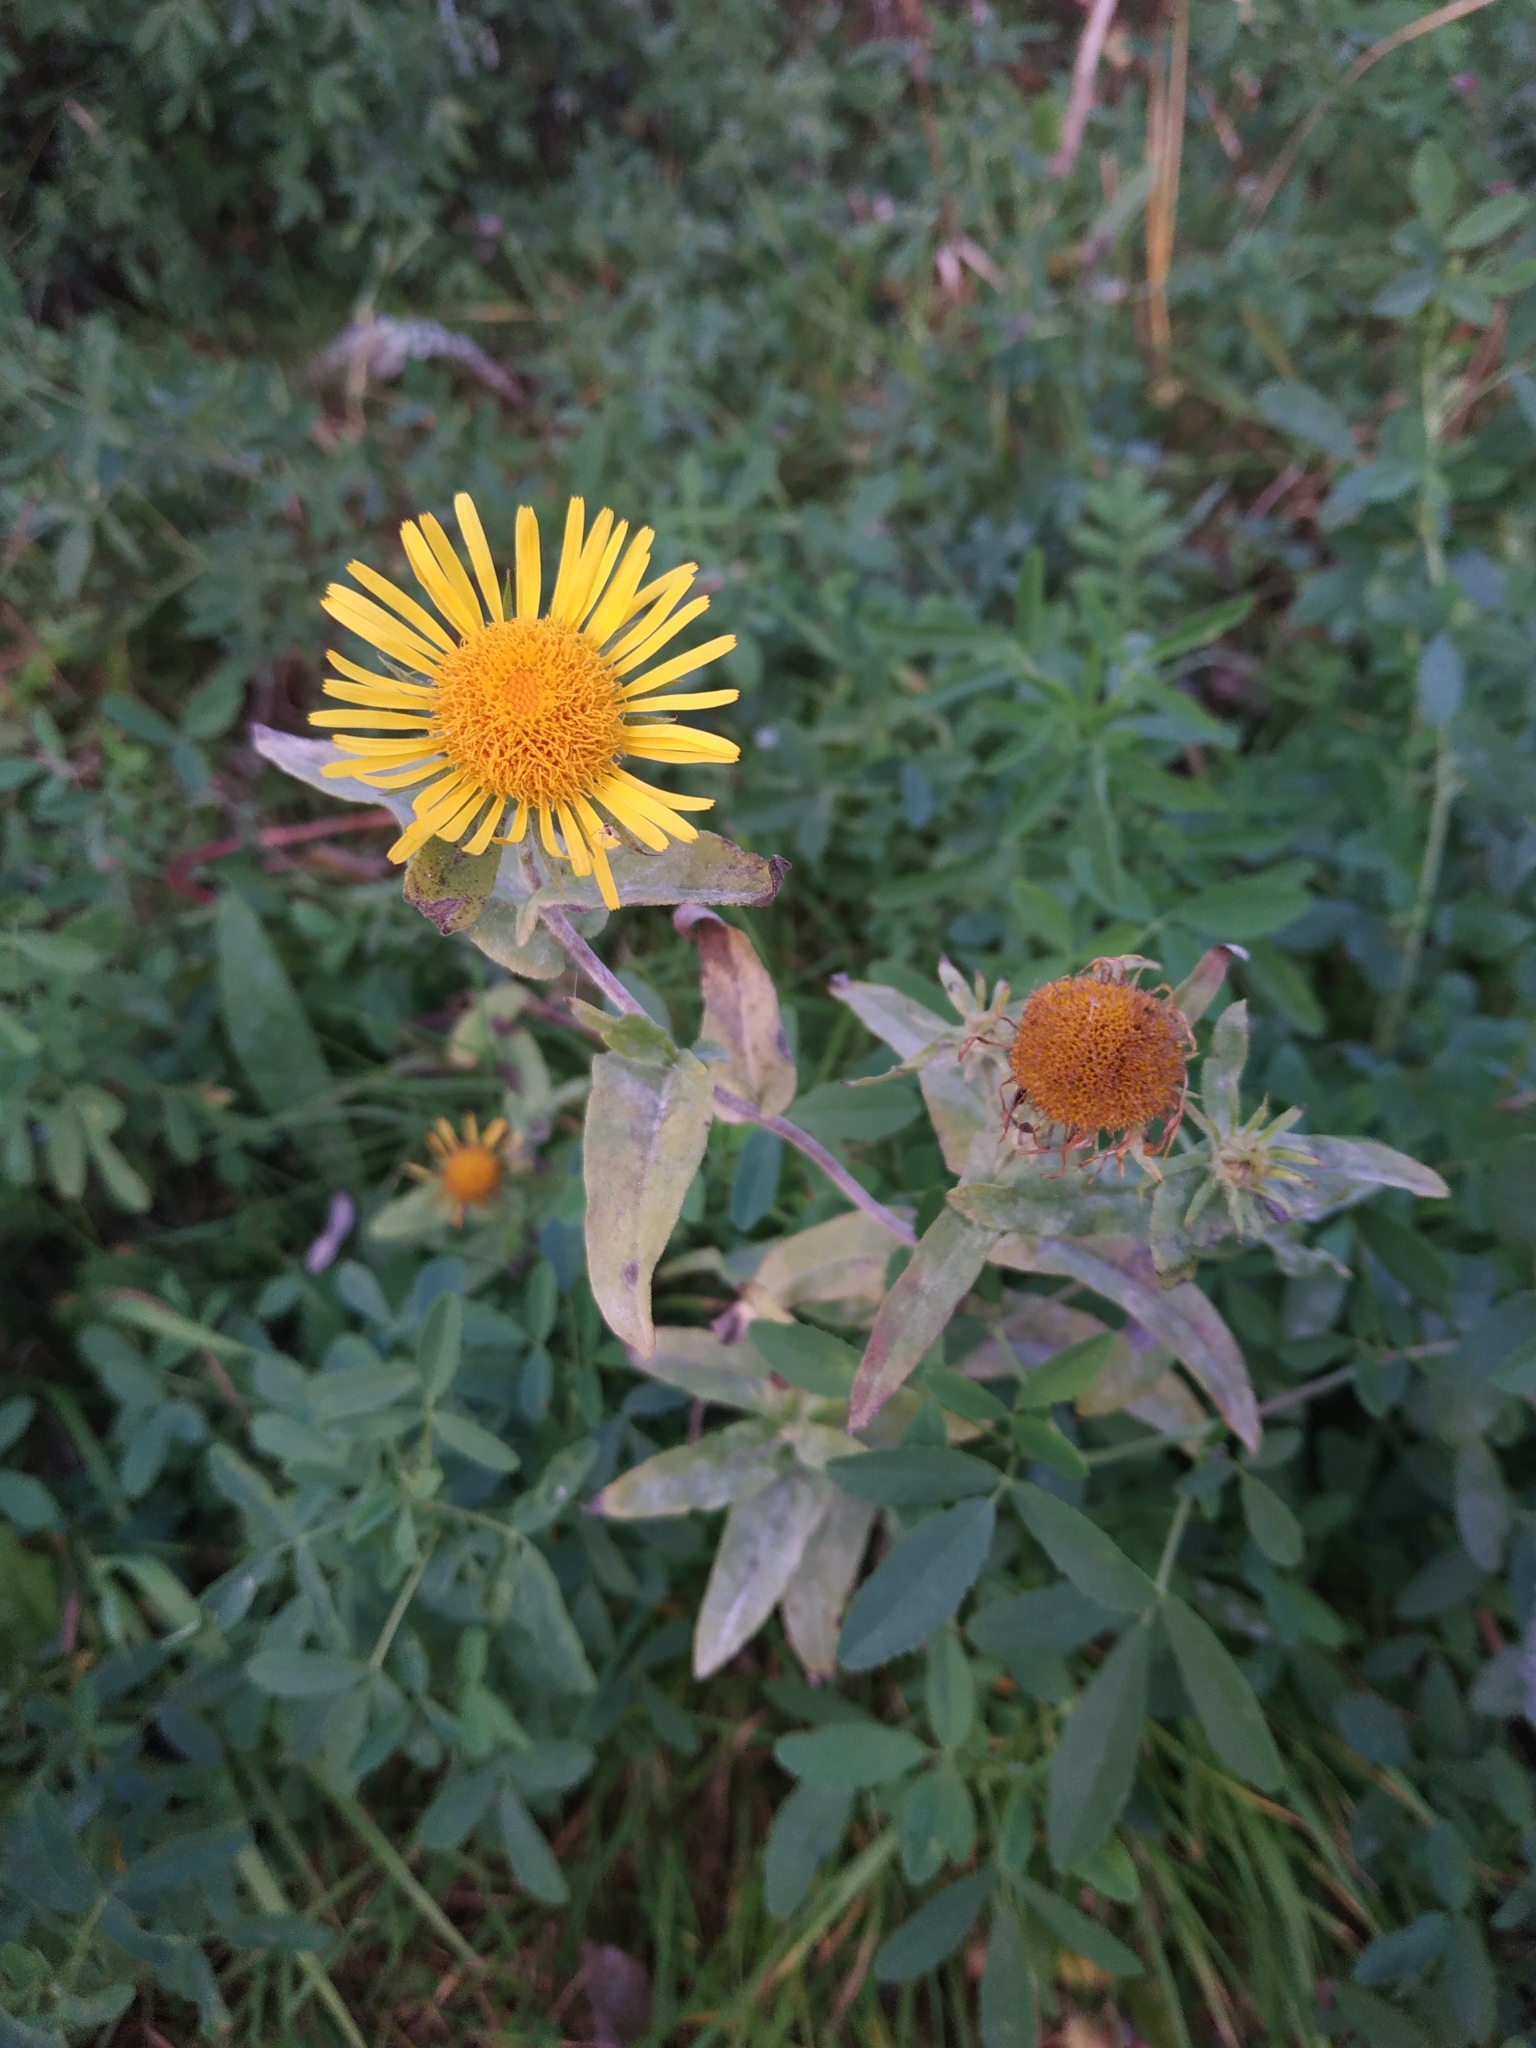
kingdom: Plantae
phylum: Tracheophyta
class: Magnoliopsida
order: Asterales
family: Asteraceae
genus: Pentanema
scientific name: Pentanema britannicum
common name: British elecampane
